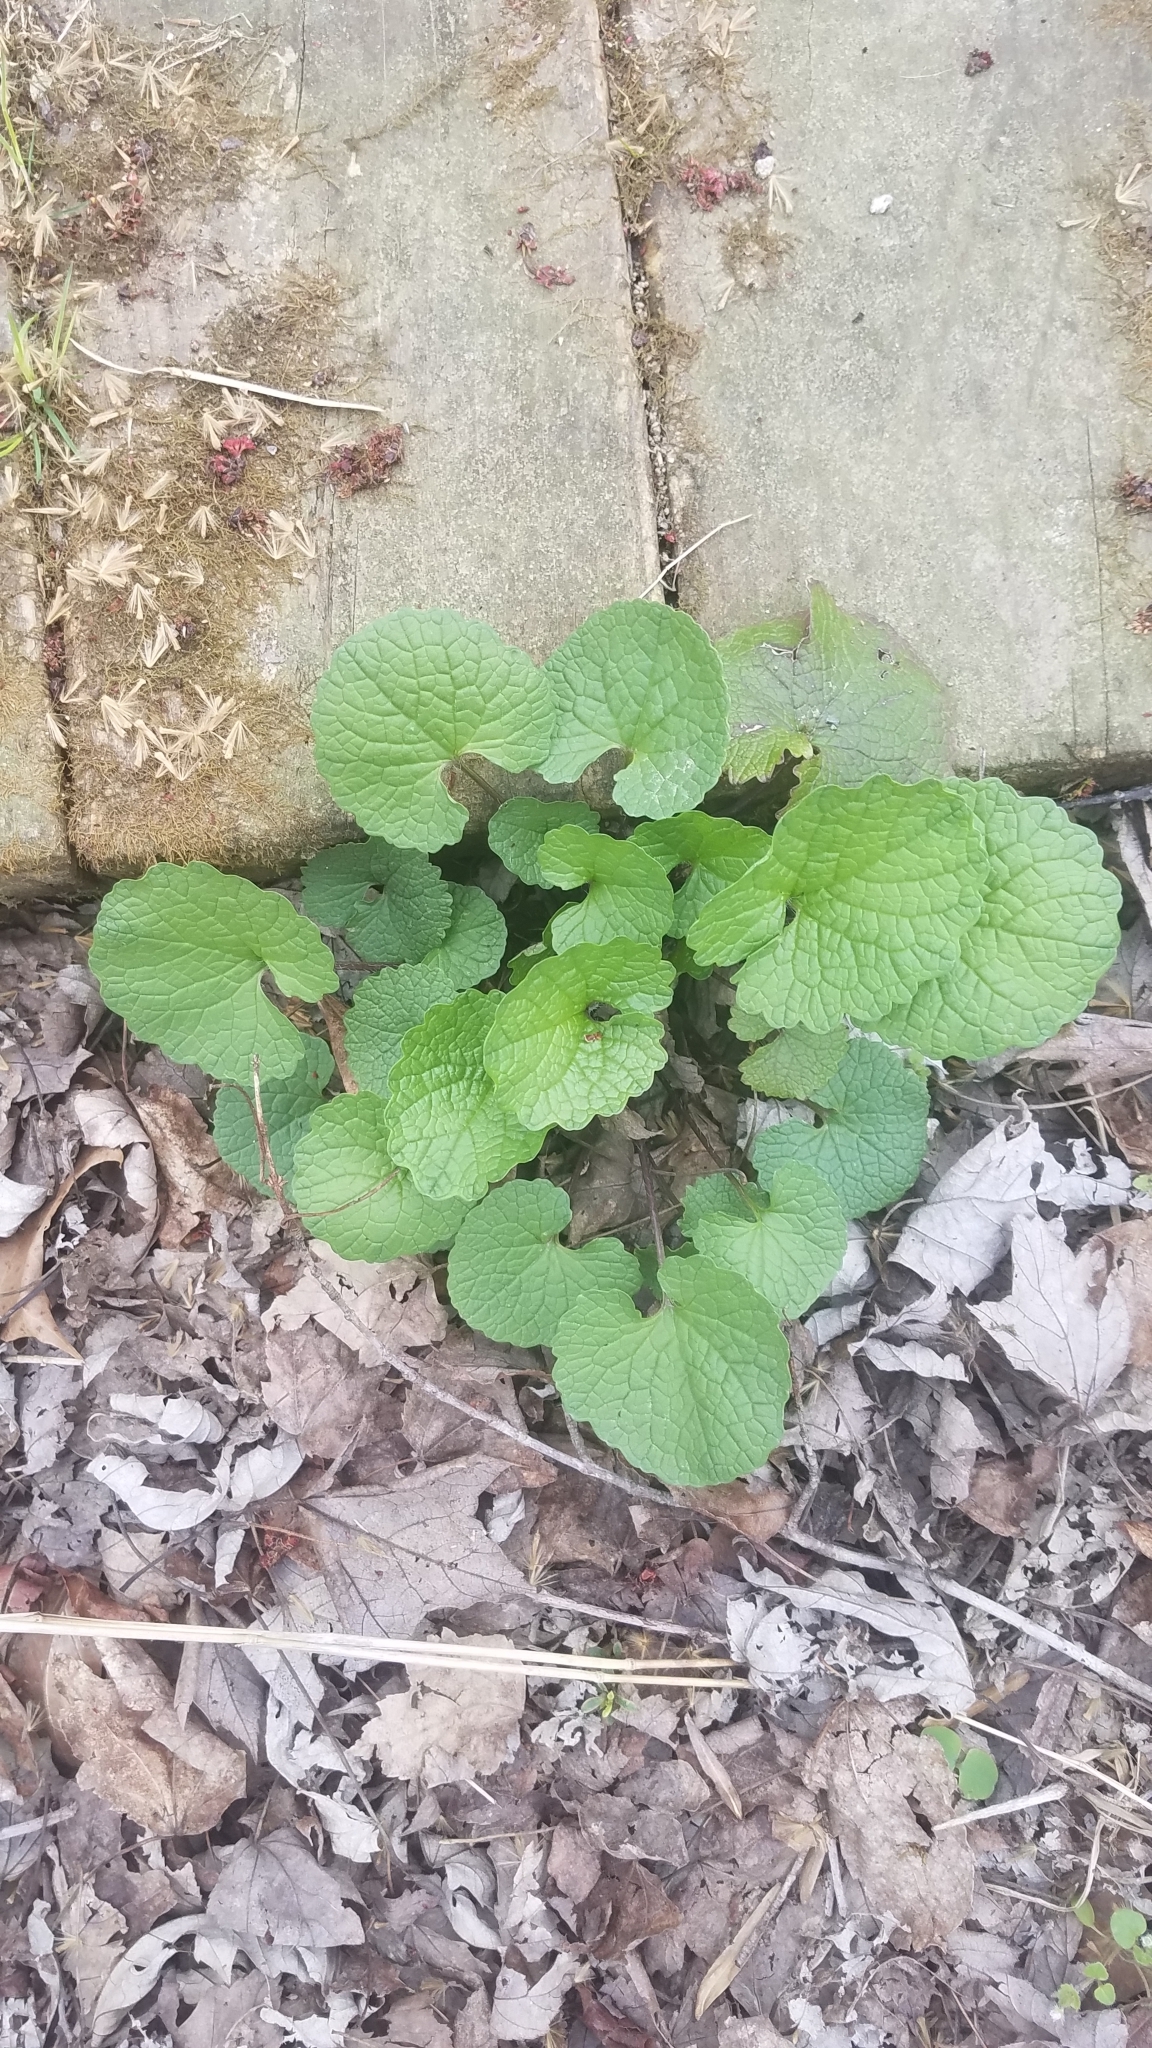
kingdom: Plantae
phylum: Tracheophyta
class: Magnoliopsida
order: Brassicales
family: Brassicaceae
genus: Alliaria
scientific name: Alliaria petiolata
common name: Garlic mustard
